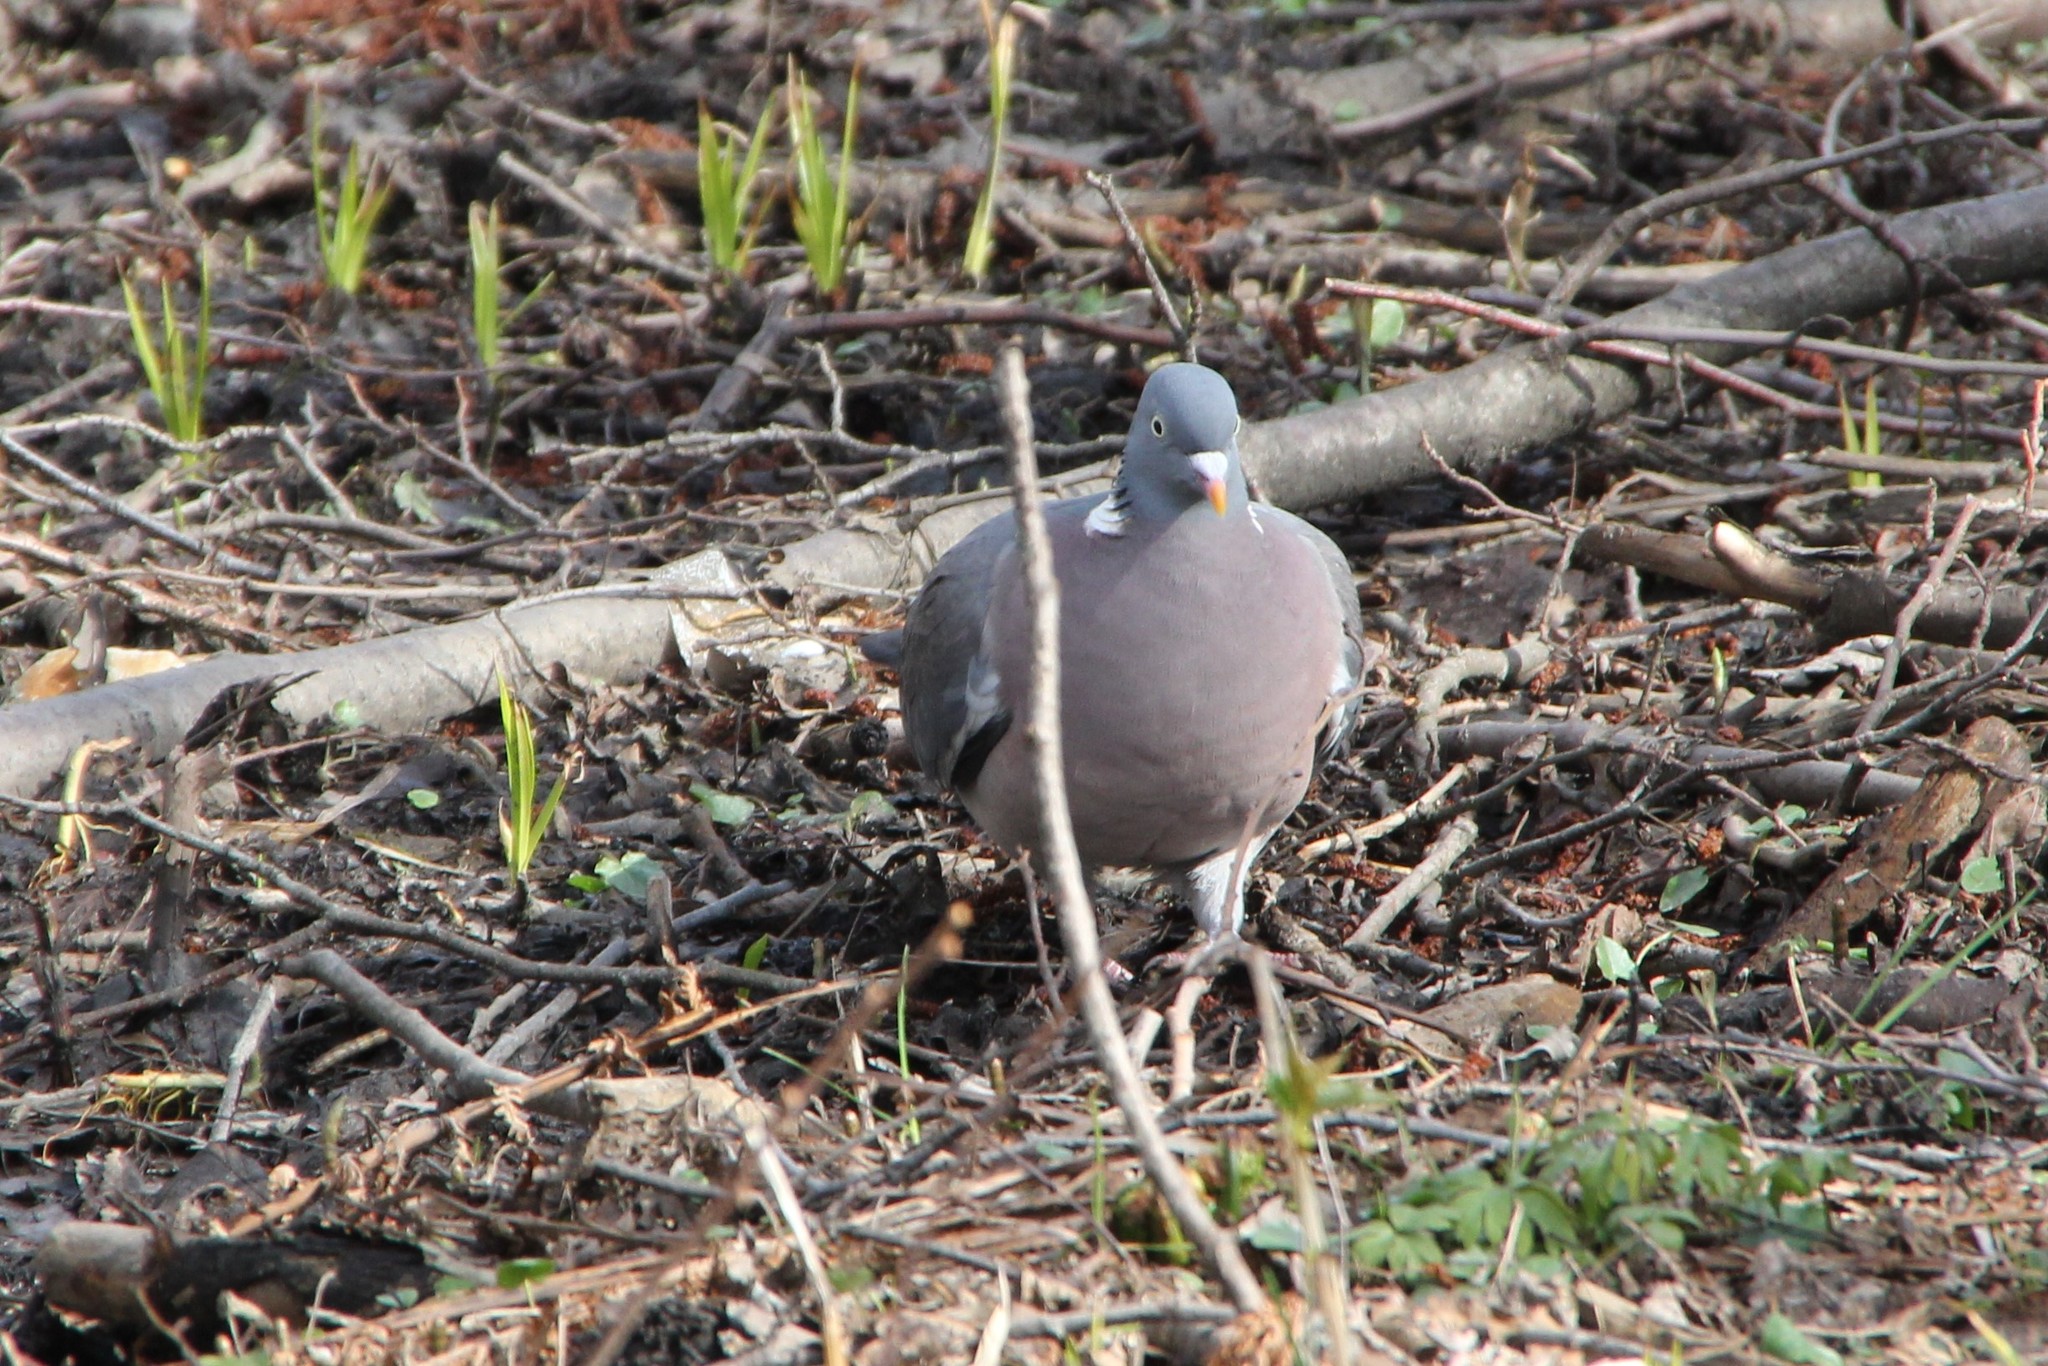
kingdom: Animalia
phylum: Chordata
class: Aves
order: Columbiformes
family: Columbidae
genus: Columba
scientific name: Columba palumbus
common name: Common wood pigeon
